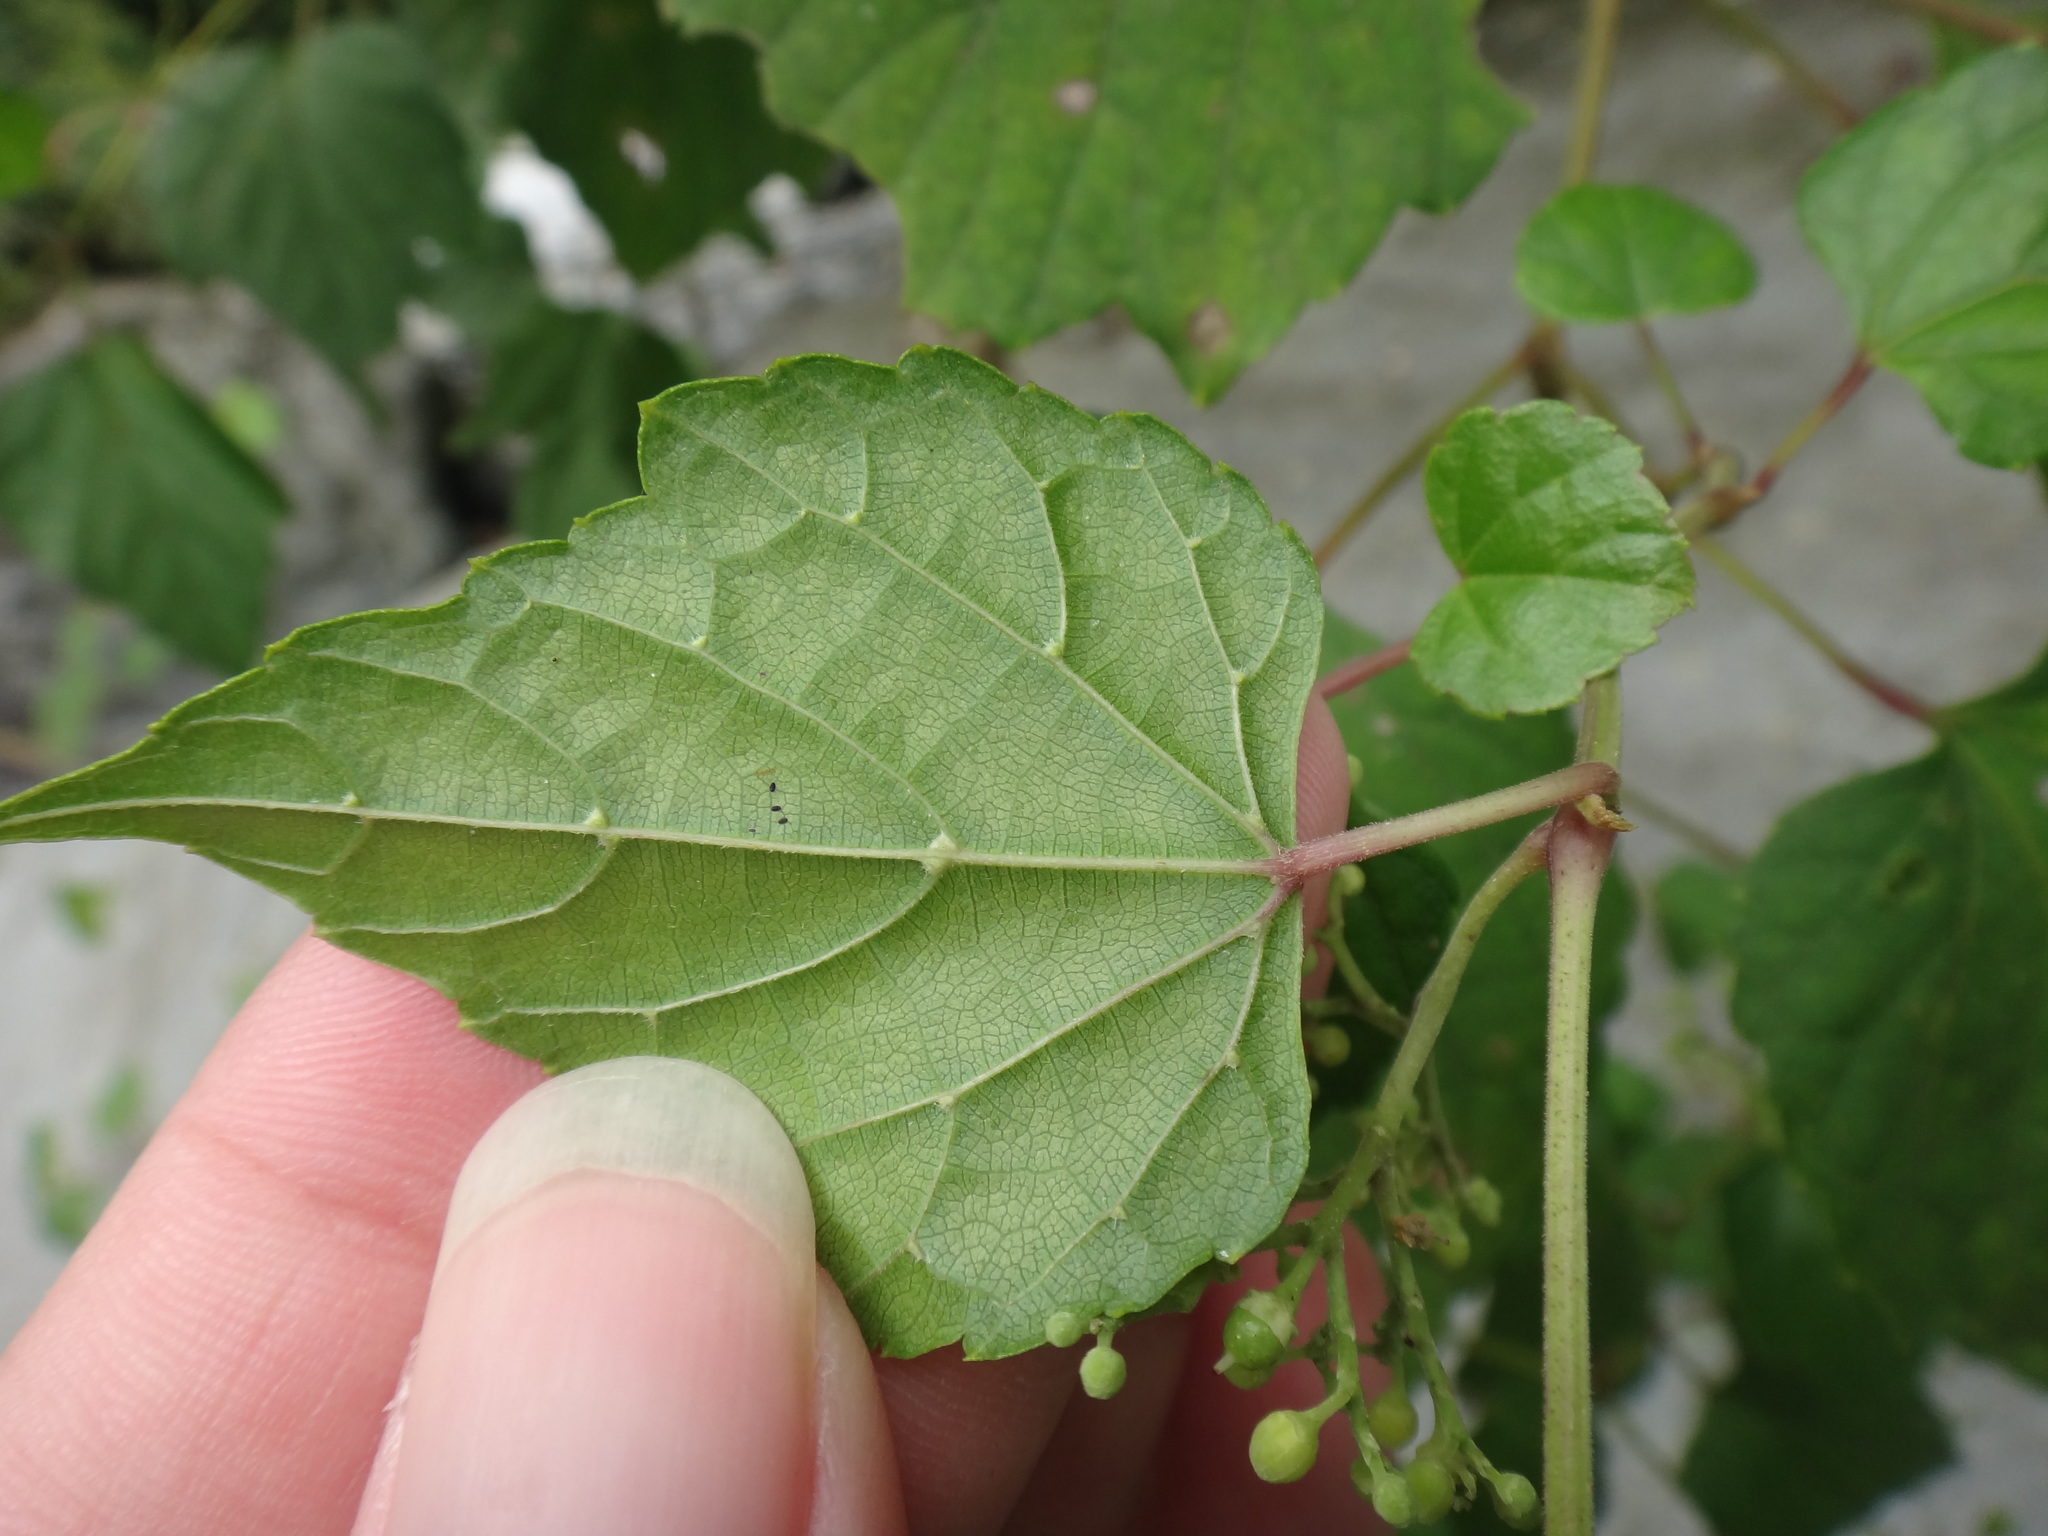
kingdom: Plantae
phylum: Tracheophyta
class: Magnoliopsida
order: Vitales
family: Vitaceae
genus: Ampelopsis
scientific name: Ampelopsis glandulosa
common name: Amur peppervine
